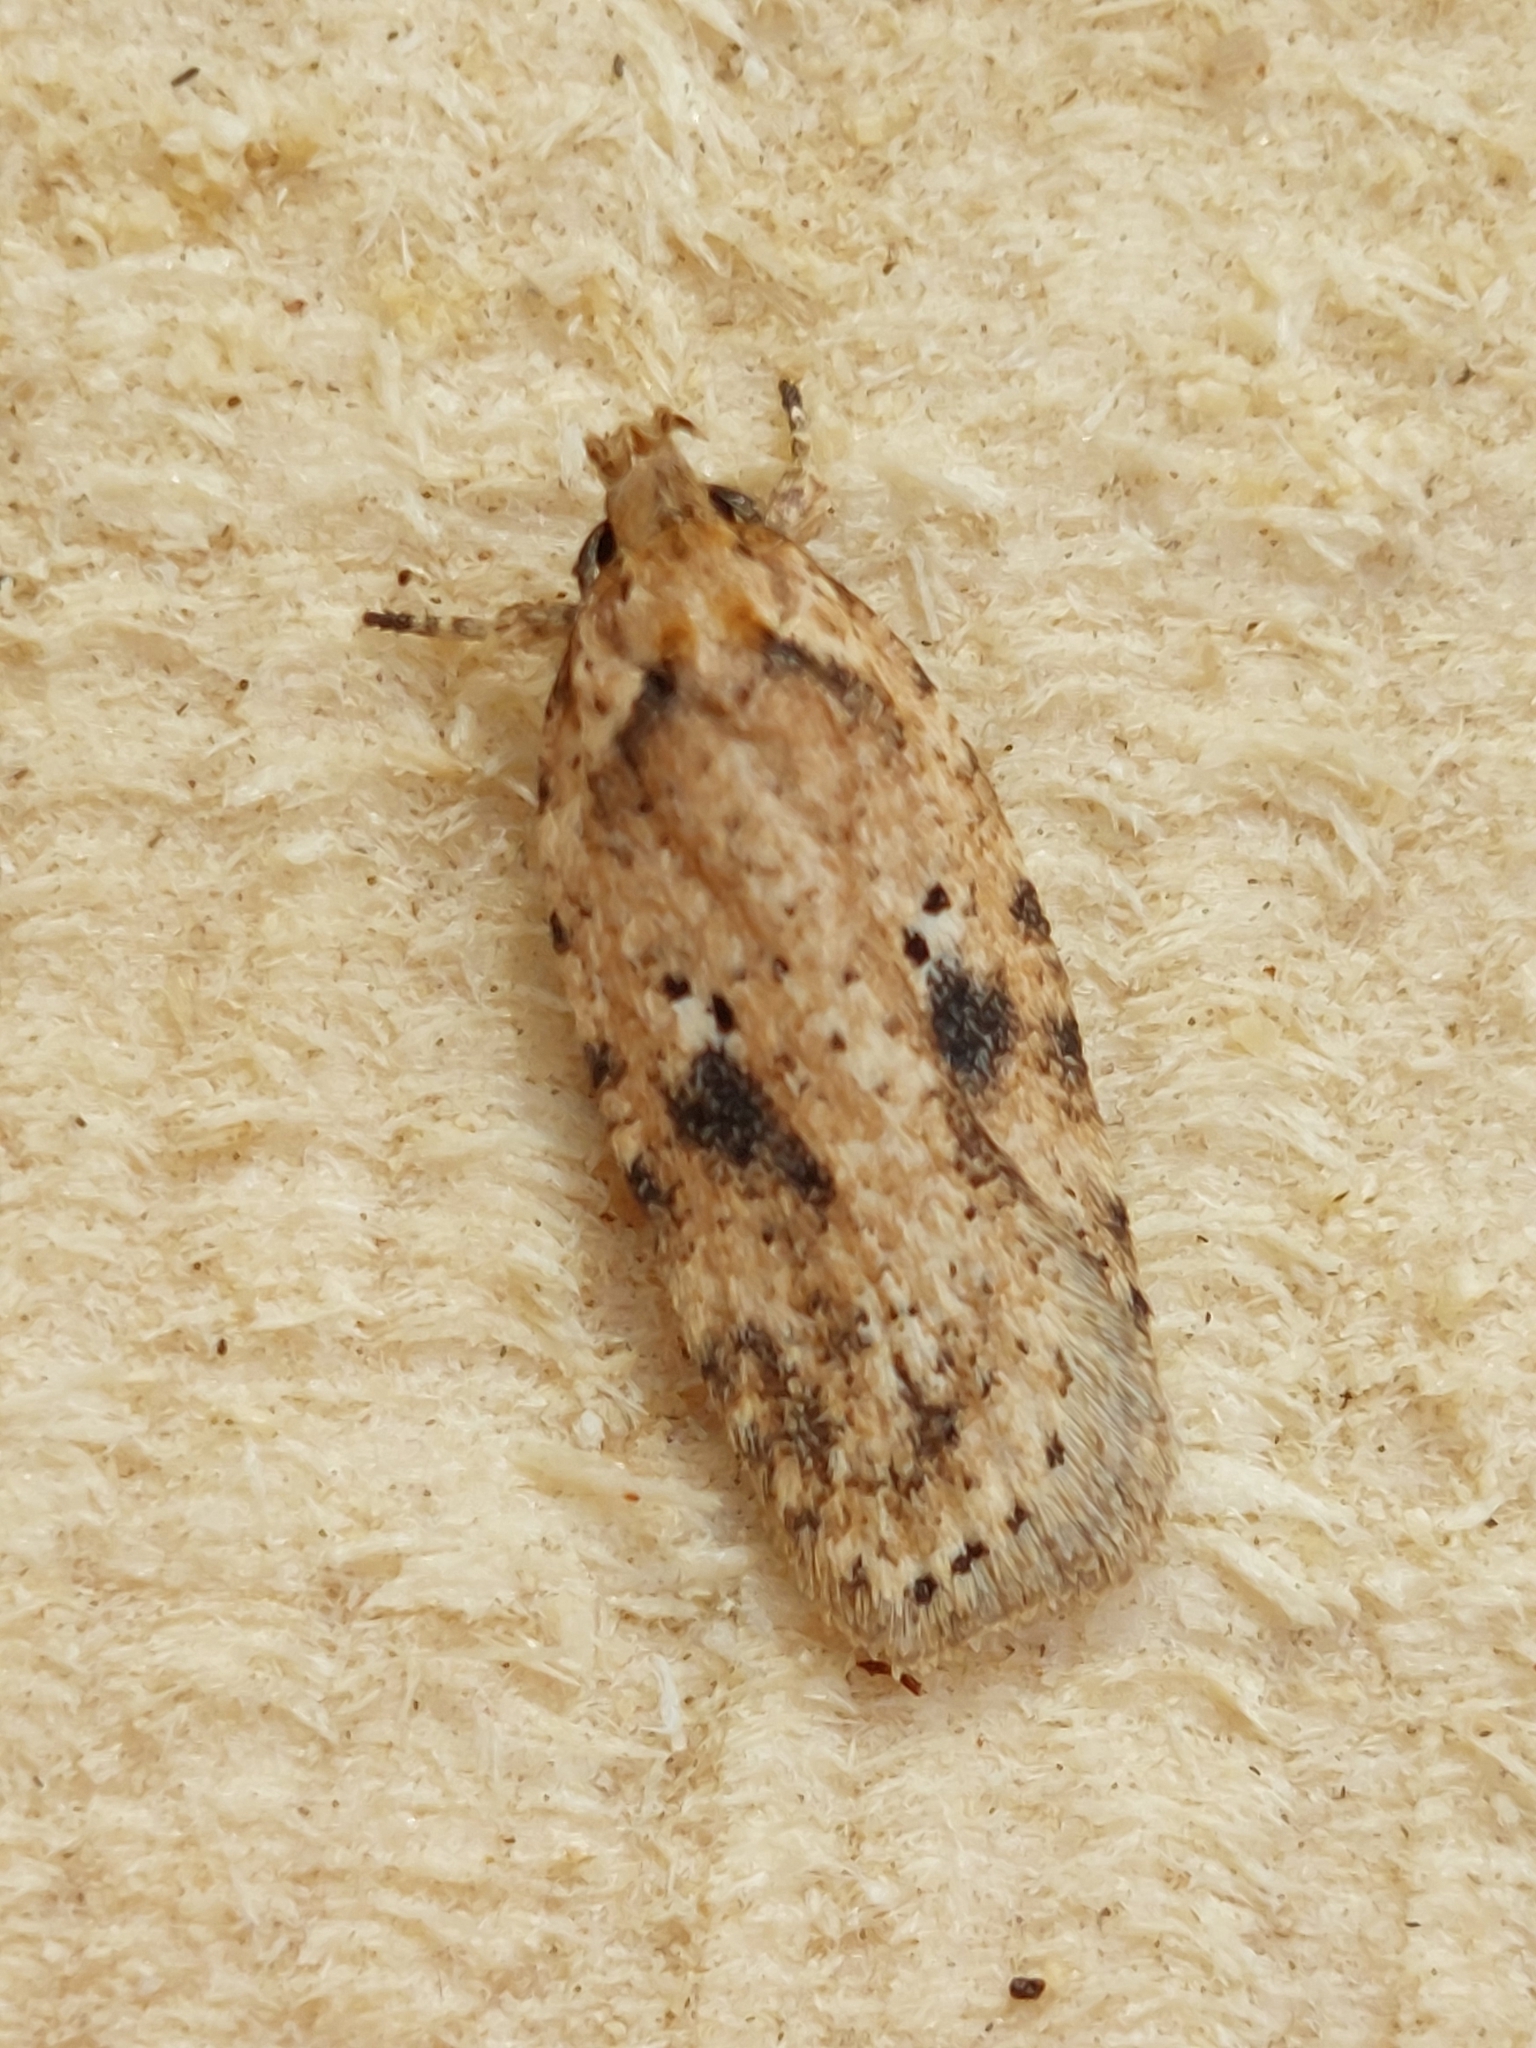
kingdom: Animalia
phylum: Arthropoda
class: Insecta
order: Lepidoptera
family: Depressariidae
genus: Agonopterix
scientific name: Agonopterix arenella
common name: Brindled flat-body
